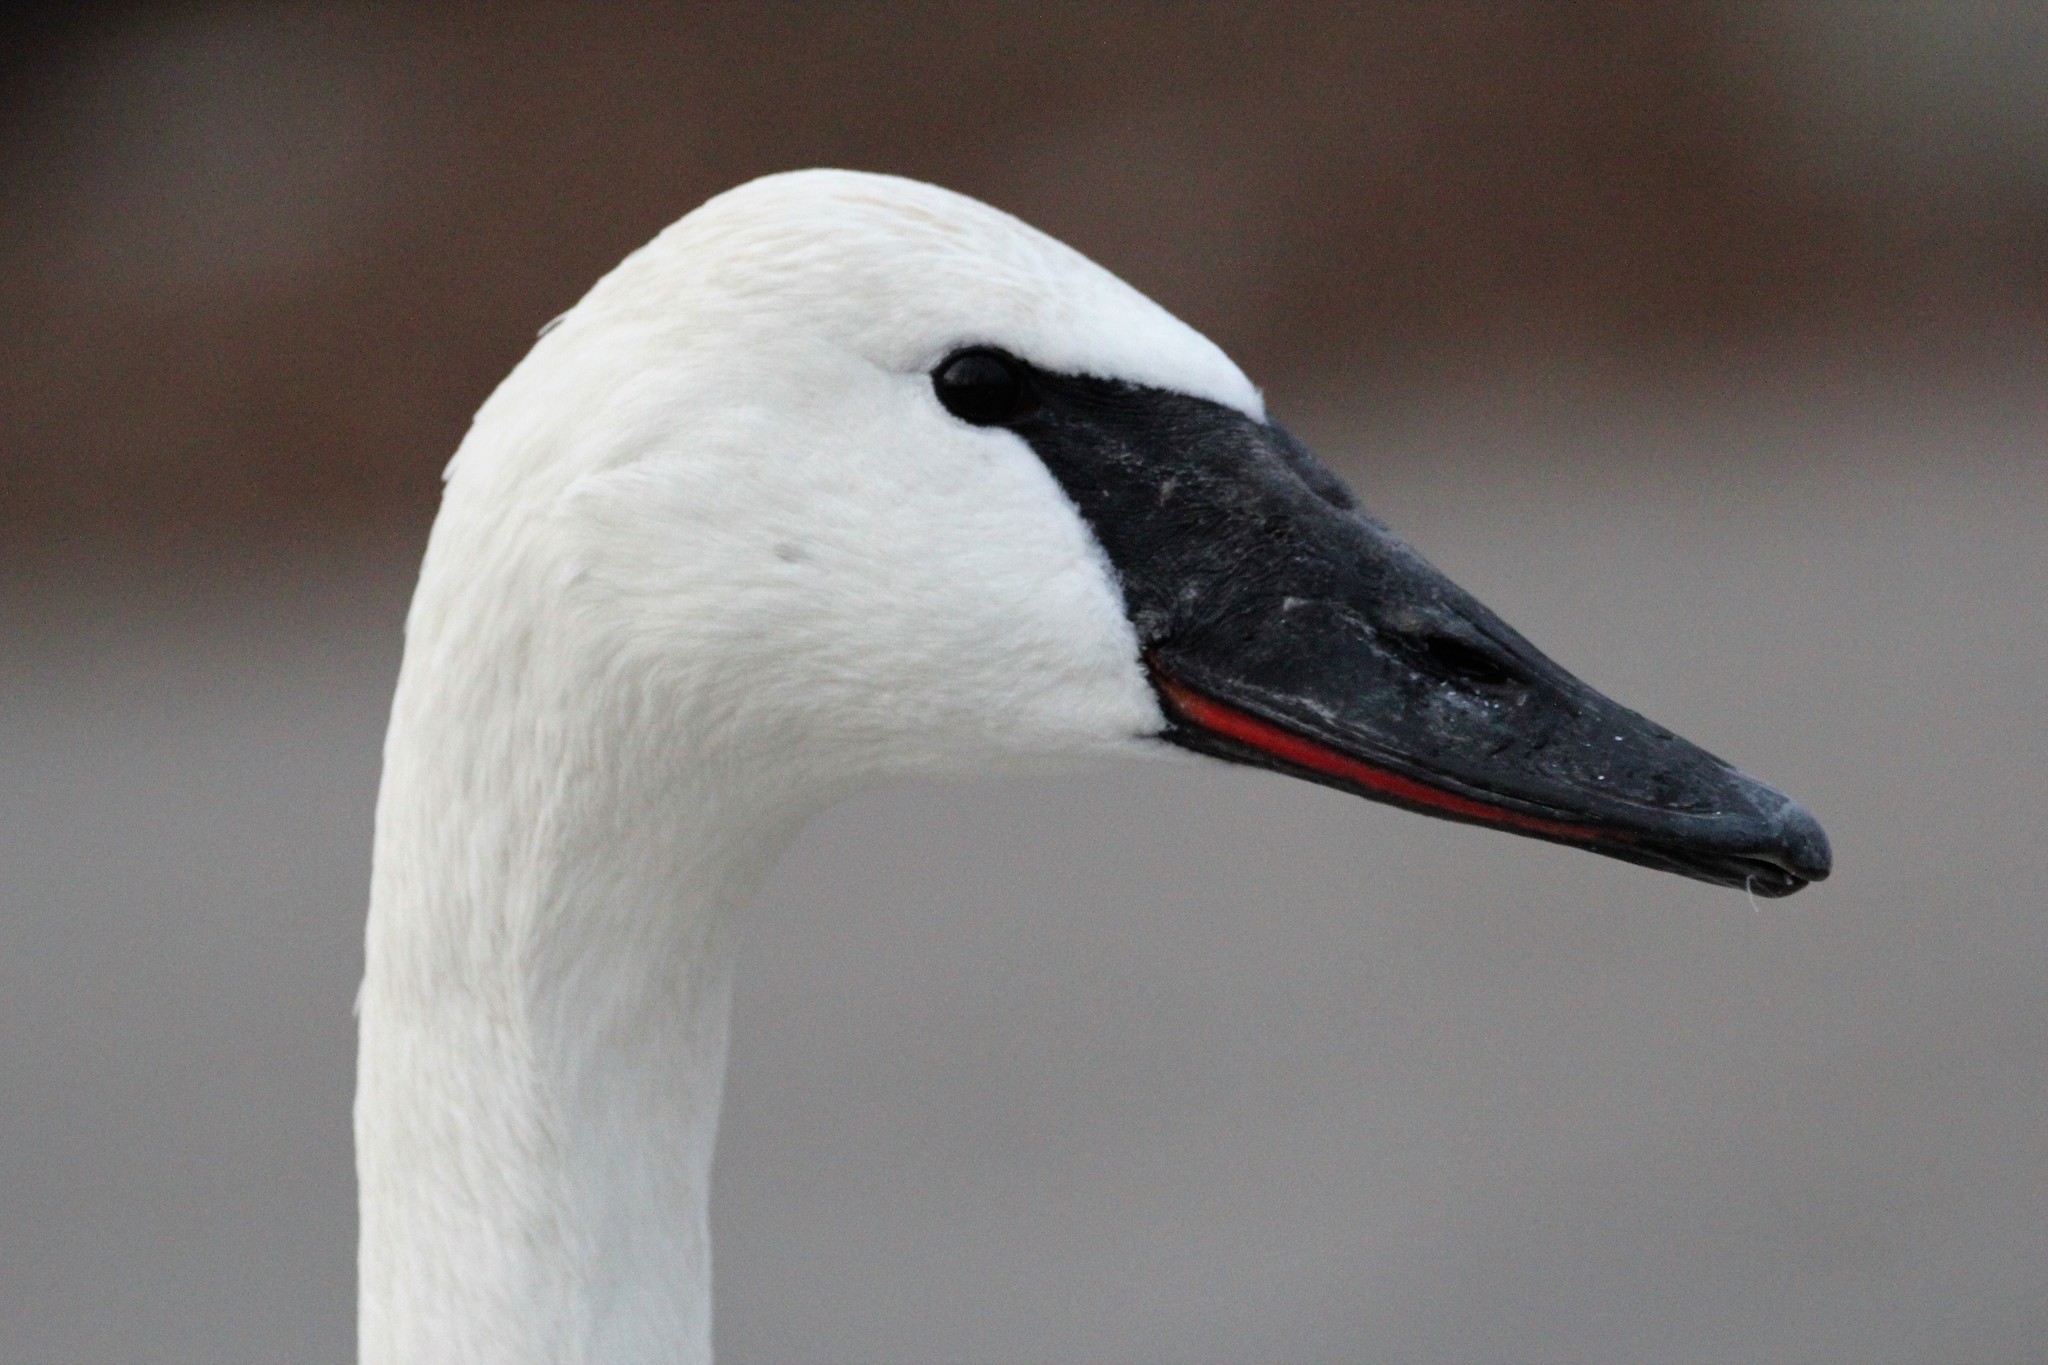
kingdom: Animalia
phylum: Chordata
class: Aves
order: Anseriformes
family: Anatidae
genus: Cygnus
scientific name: Cygnus buccinator
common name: Trumpeter swan
